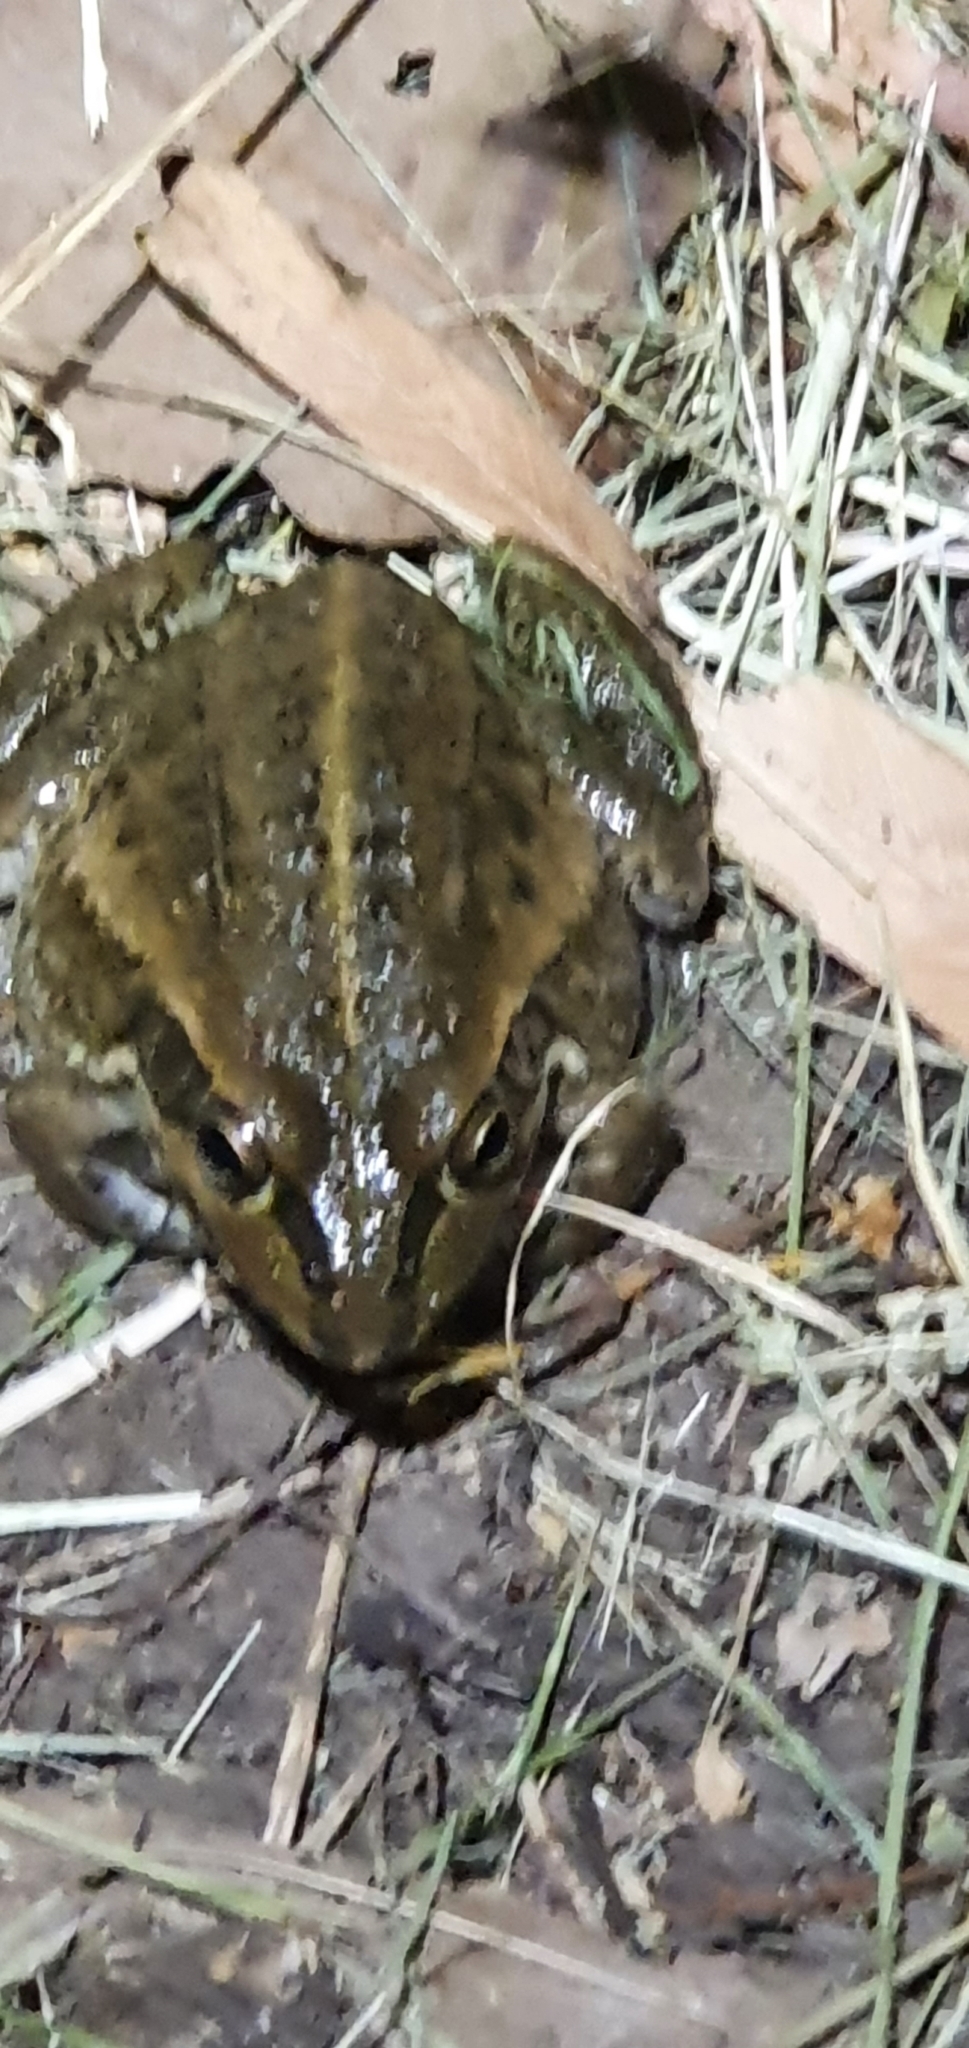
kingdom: Animalia
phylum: Chordata
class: Amphibia
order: Anura
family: Pelodryadidae
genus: Ranoidea
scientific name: Ranoidea alboguttata
